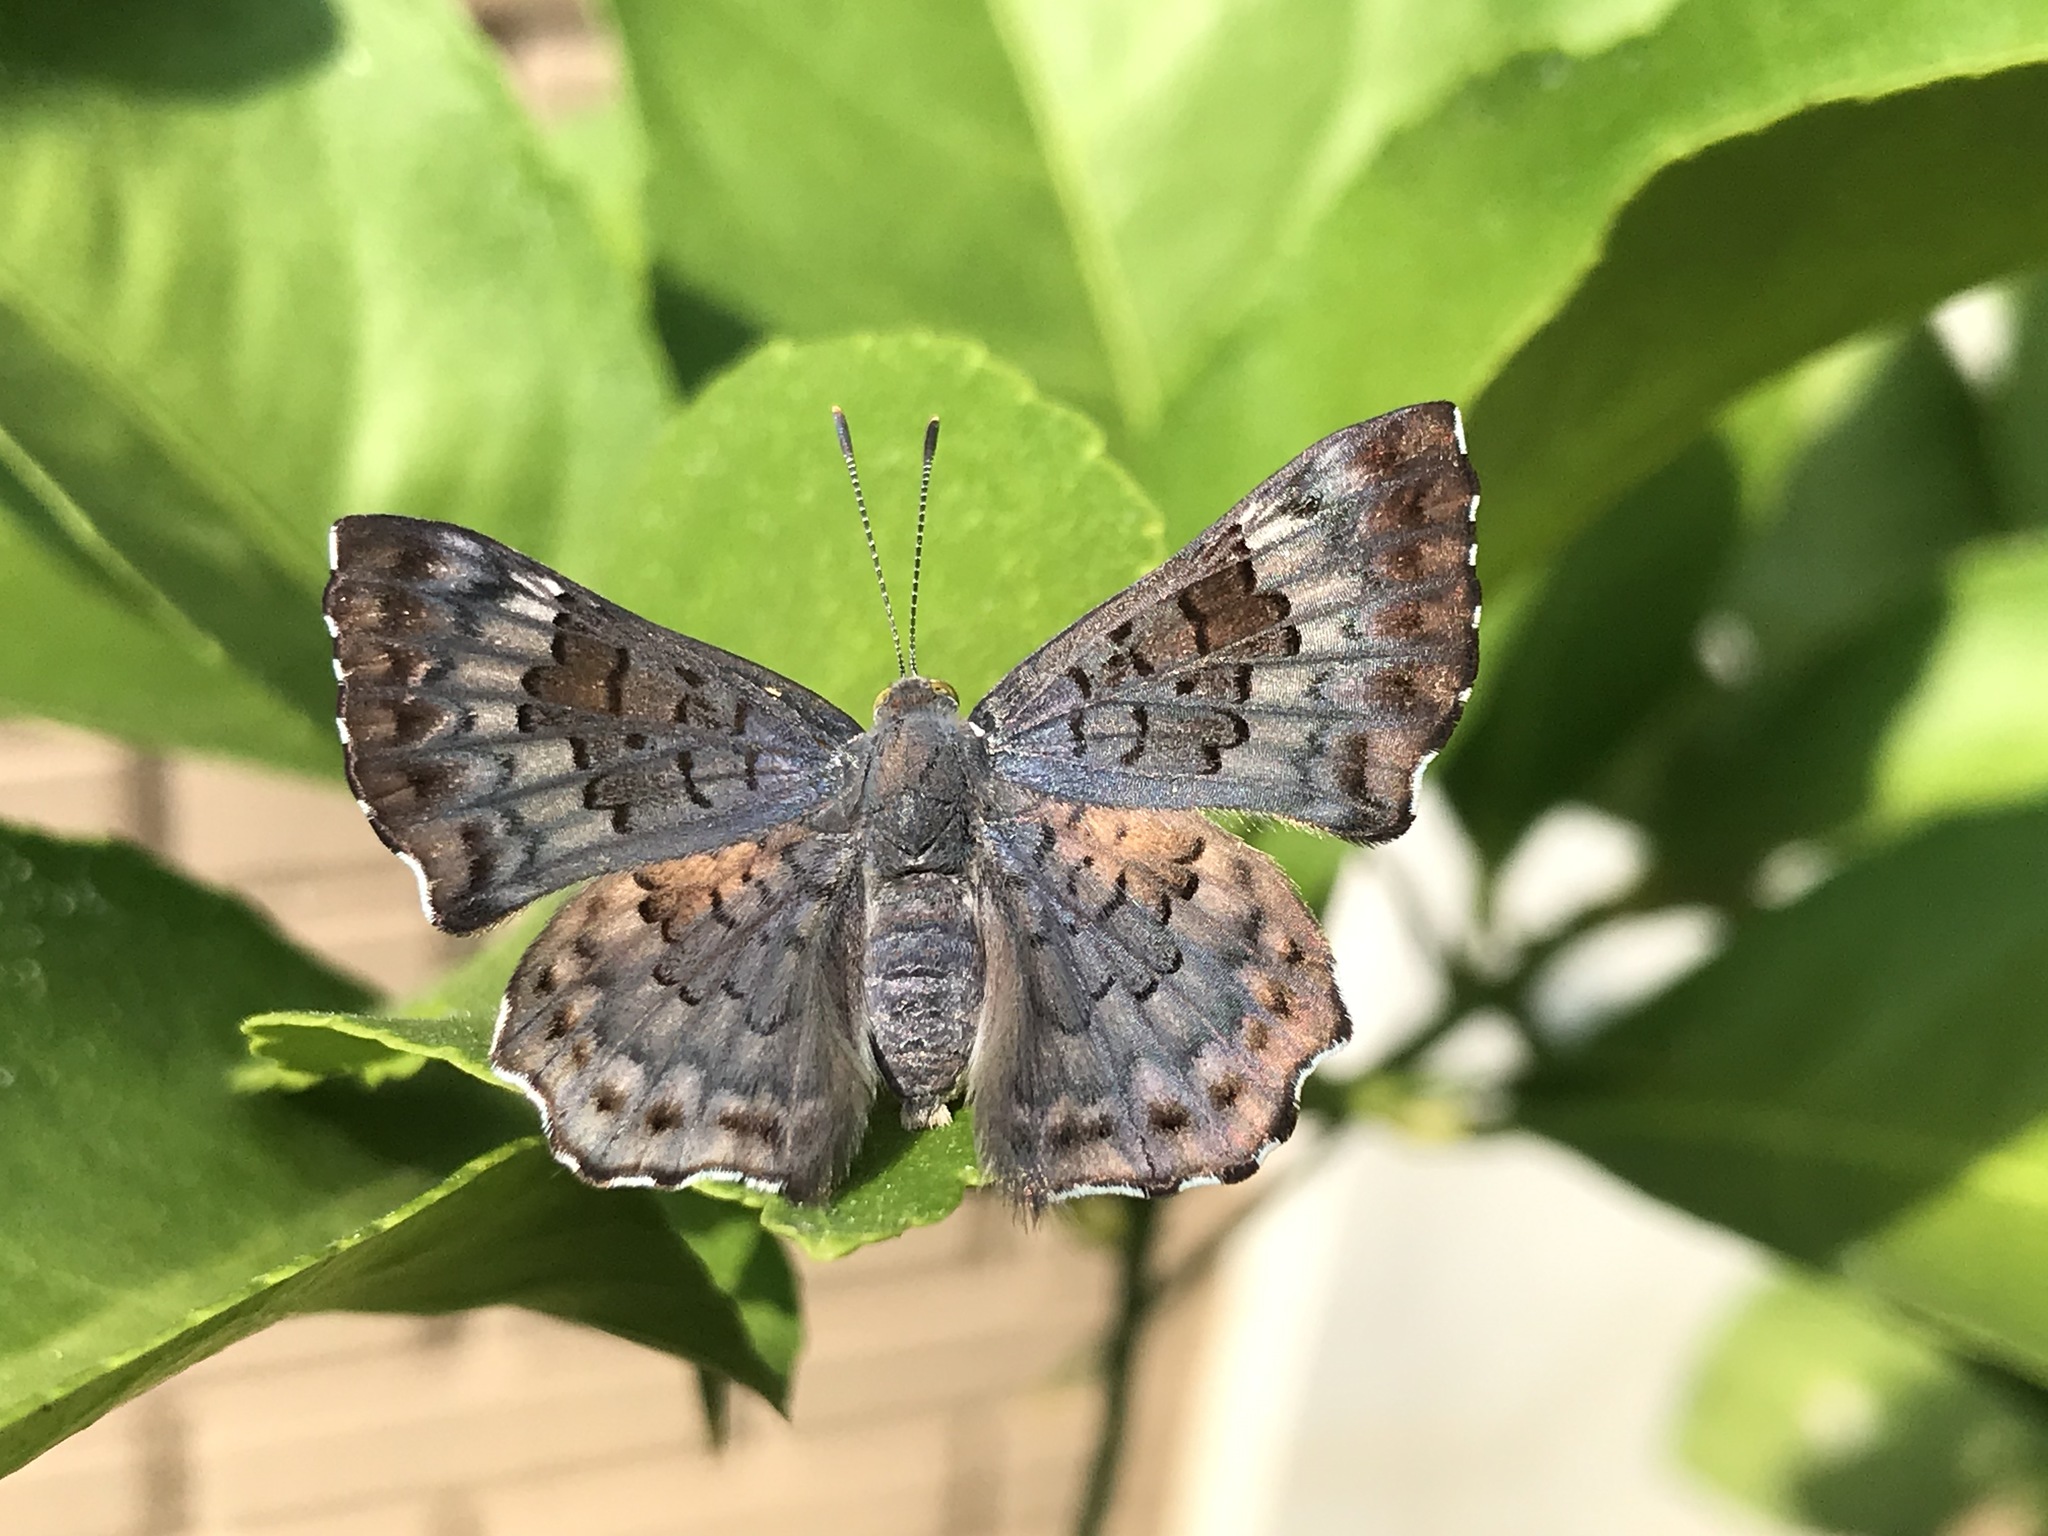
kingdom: Animalia
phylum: Arthropoda
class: Insecta
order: Lepidoptera
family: Riodinidae
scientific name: Riodinidae
